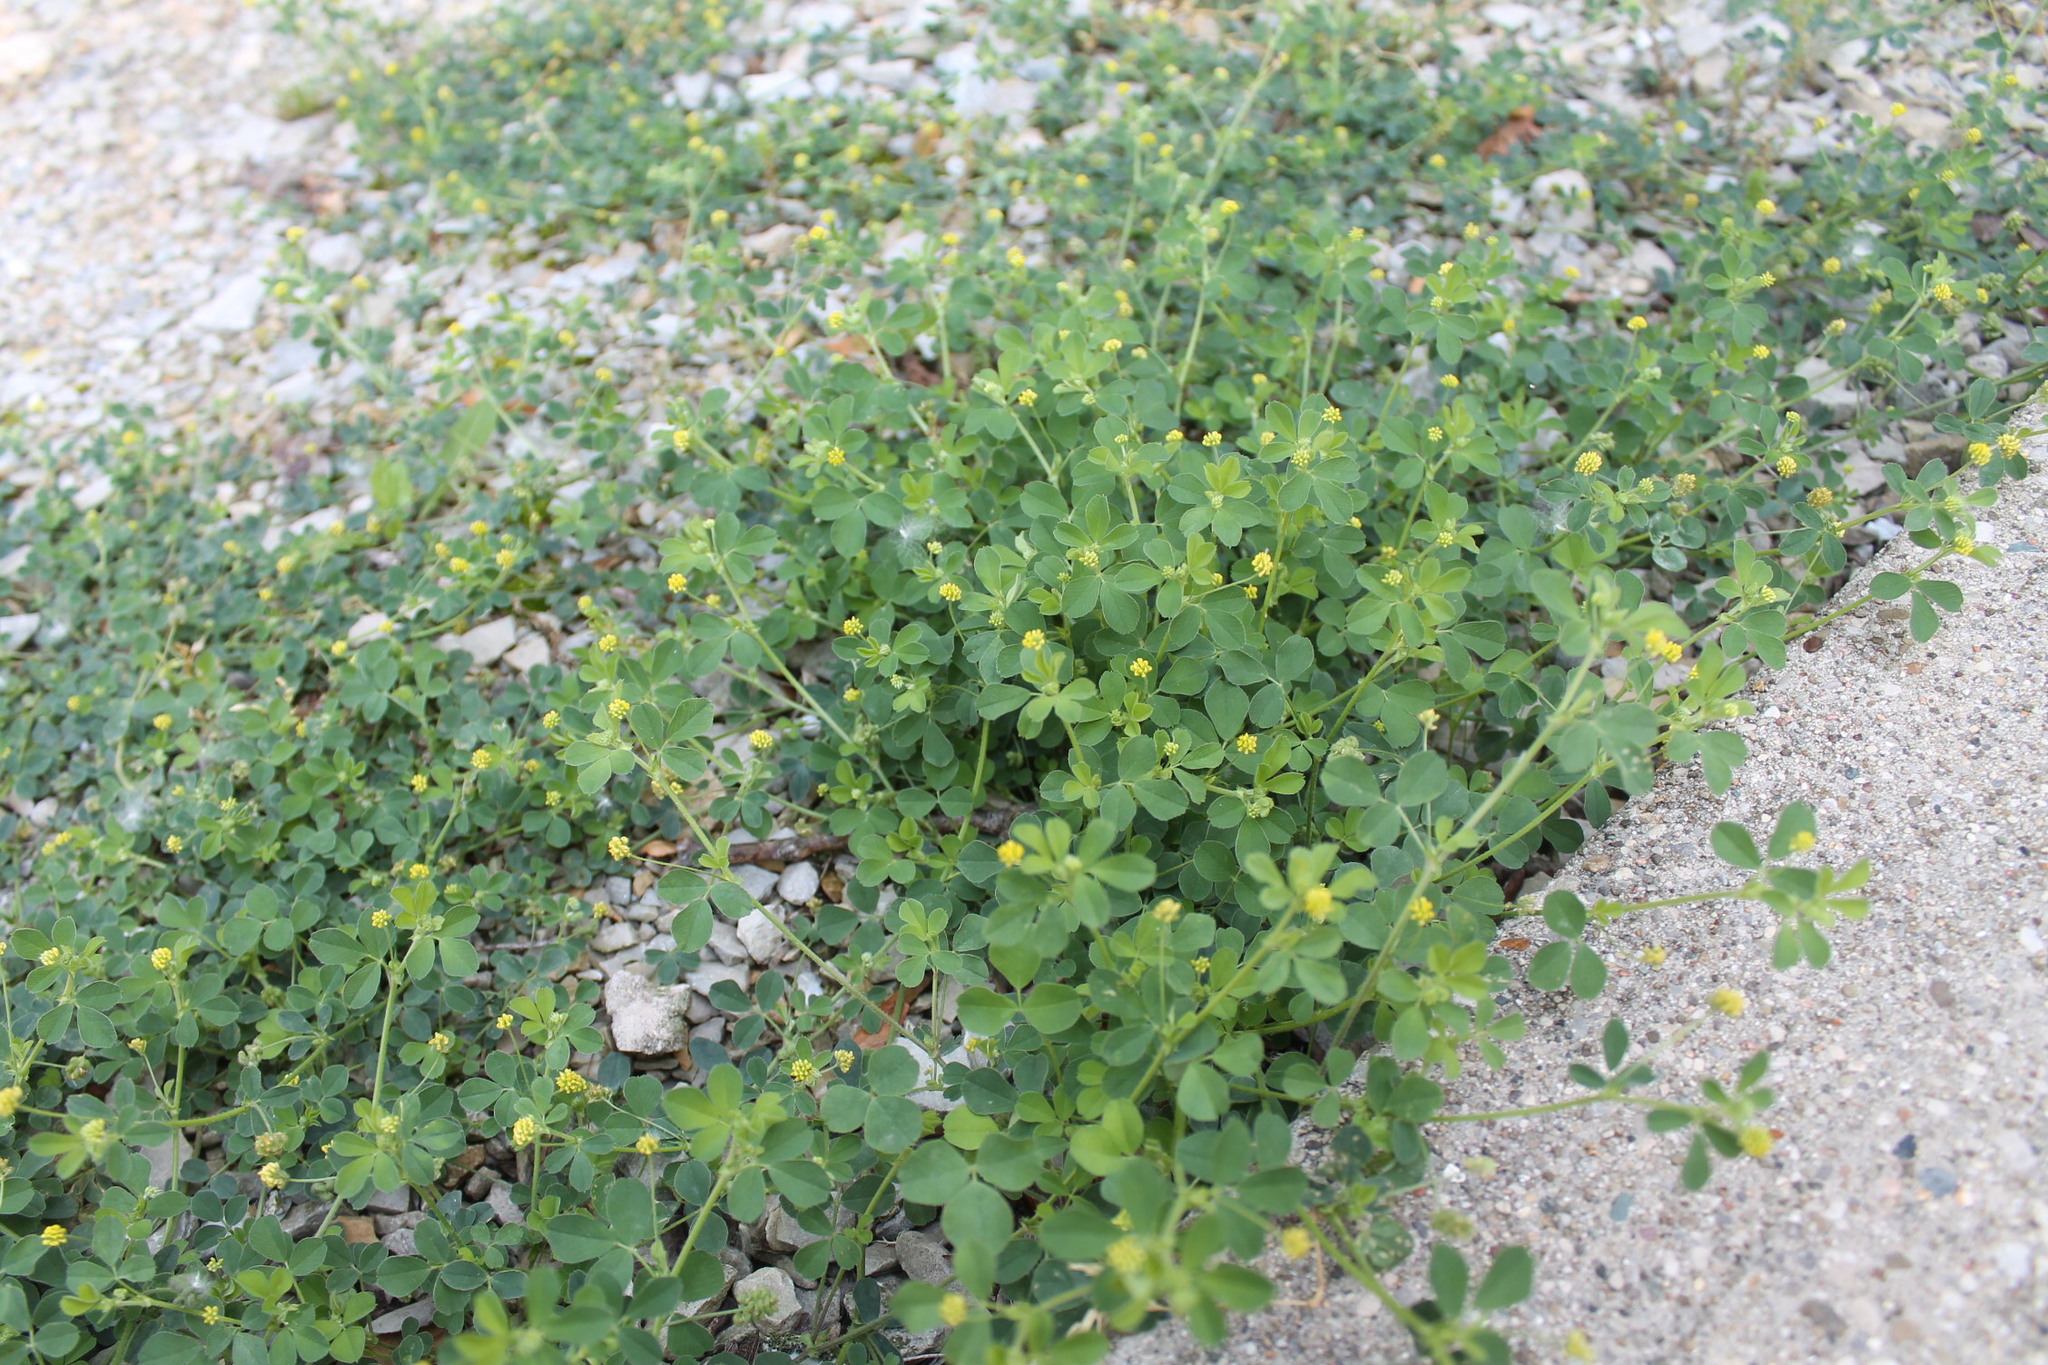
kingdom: Plantae
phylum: Tracheophyta
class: Magnoliopsida
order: Fabales
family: Fabaceae
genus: Medicago
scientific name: Medicago lupulina
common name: Black medick
